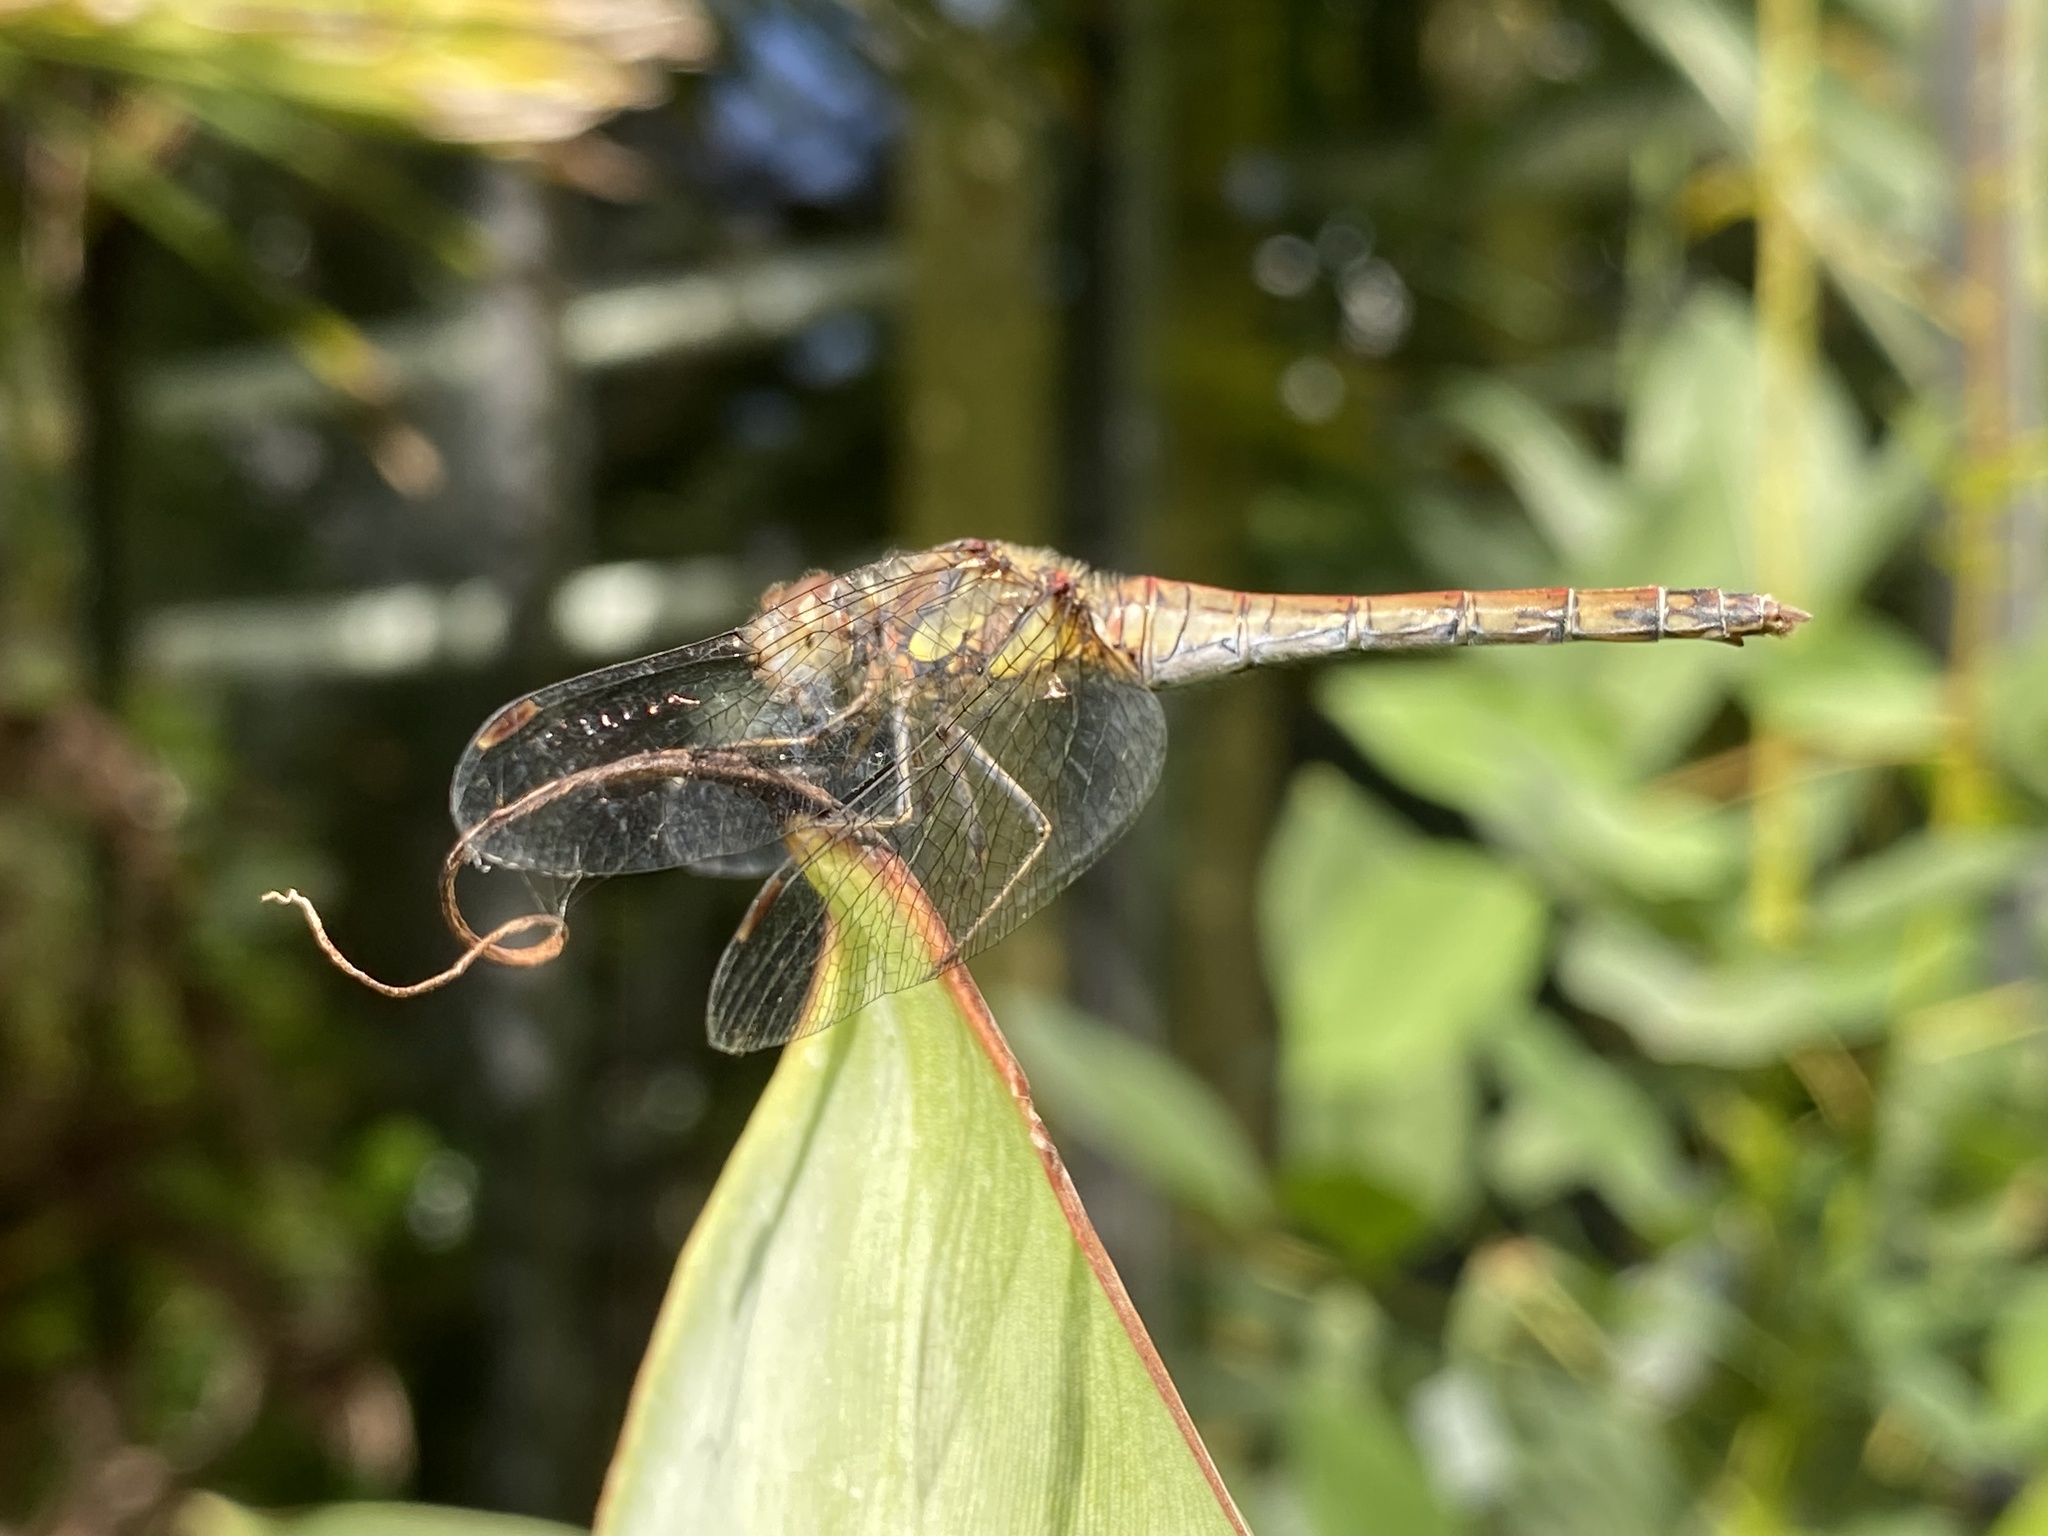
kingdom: Animalia
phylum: Arthropoda
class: Insecta
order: Odonata
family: Libellulidae
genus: Sympetrum
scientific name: Sympetrum striolatum
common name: Common darter
